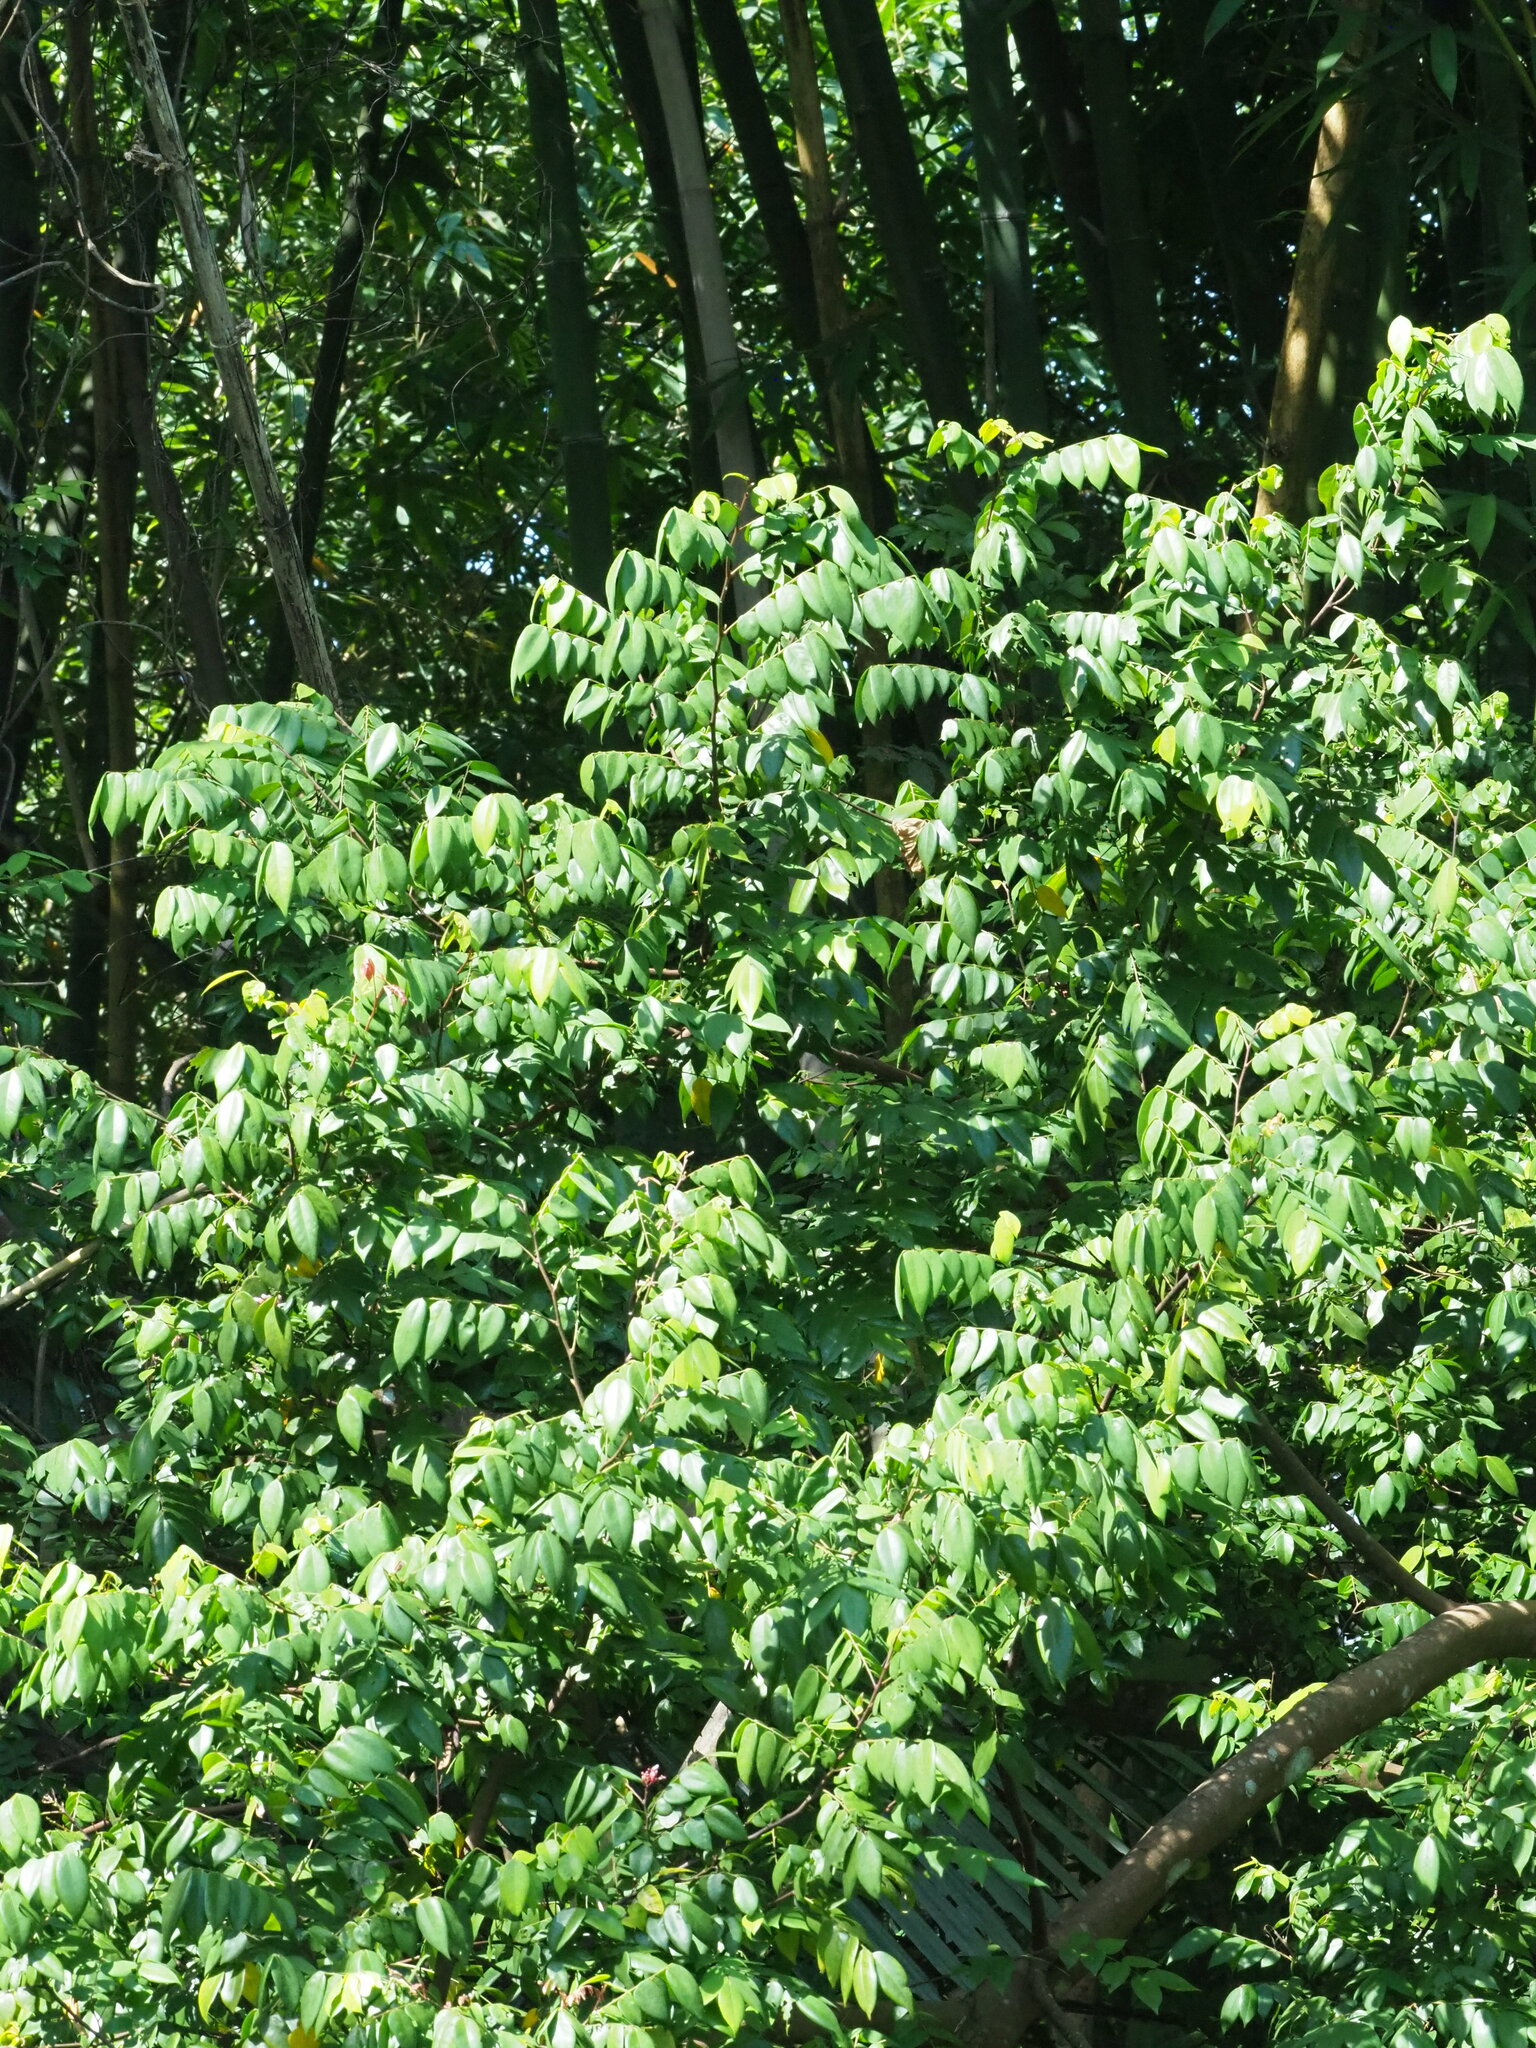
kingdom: Plantae
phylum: Tracheophyta
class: Magnoliopsida
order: Oxalidales
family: Oxalidaceae
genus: Averrhoa
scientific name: Averrhoa carambola
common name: Blimbing
